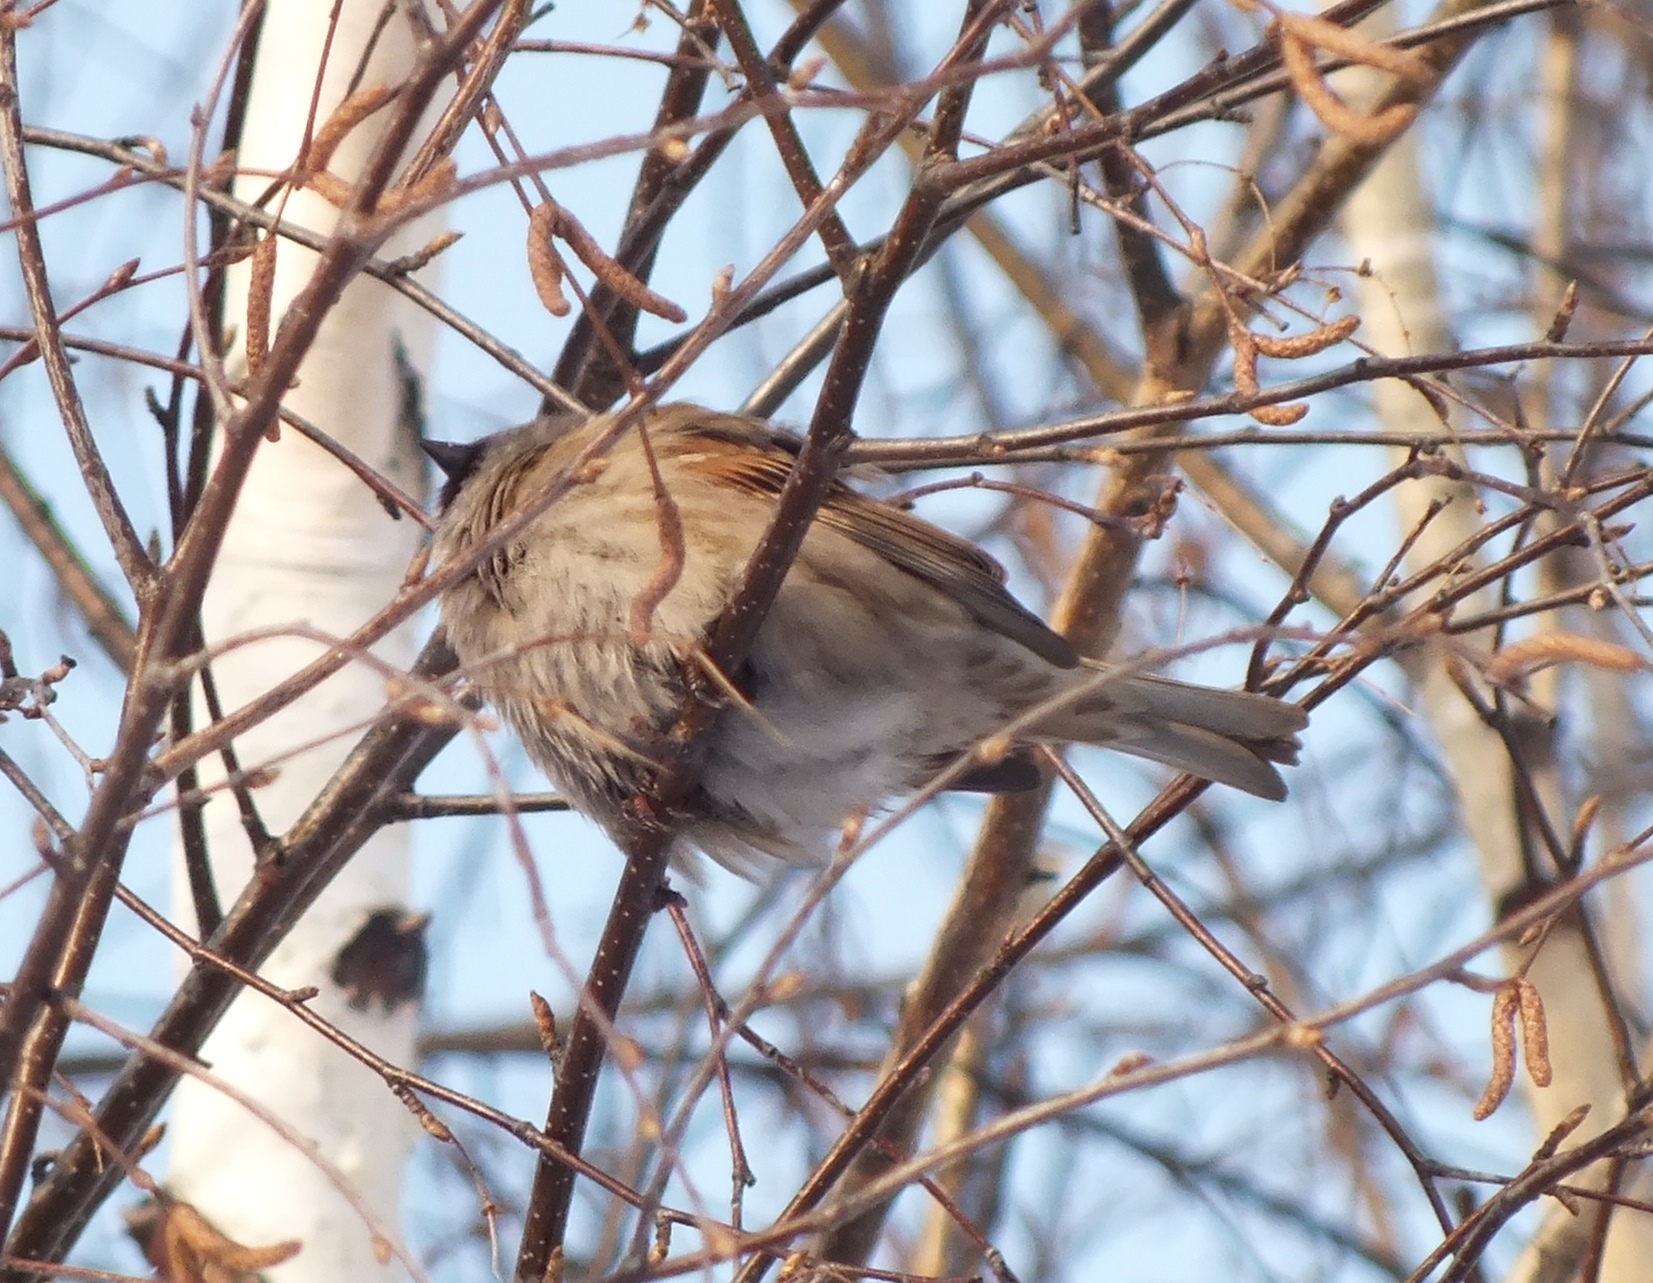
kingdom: Animalia
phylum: Chordata
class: Aves
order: Passeriformes
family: Passeridae
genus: Passer
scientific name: Passer montanus
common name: Eurasian tree sparrow
